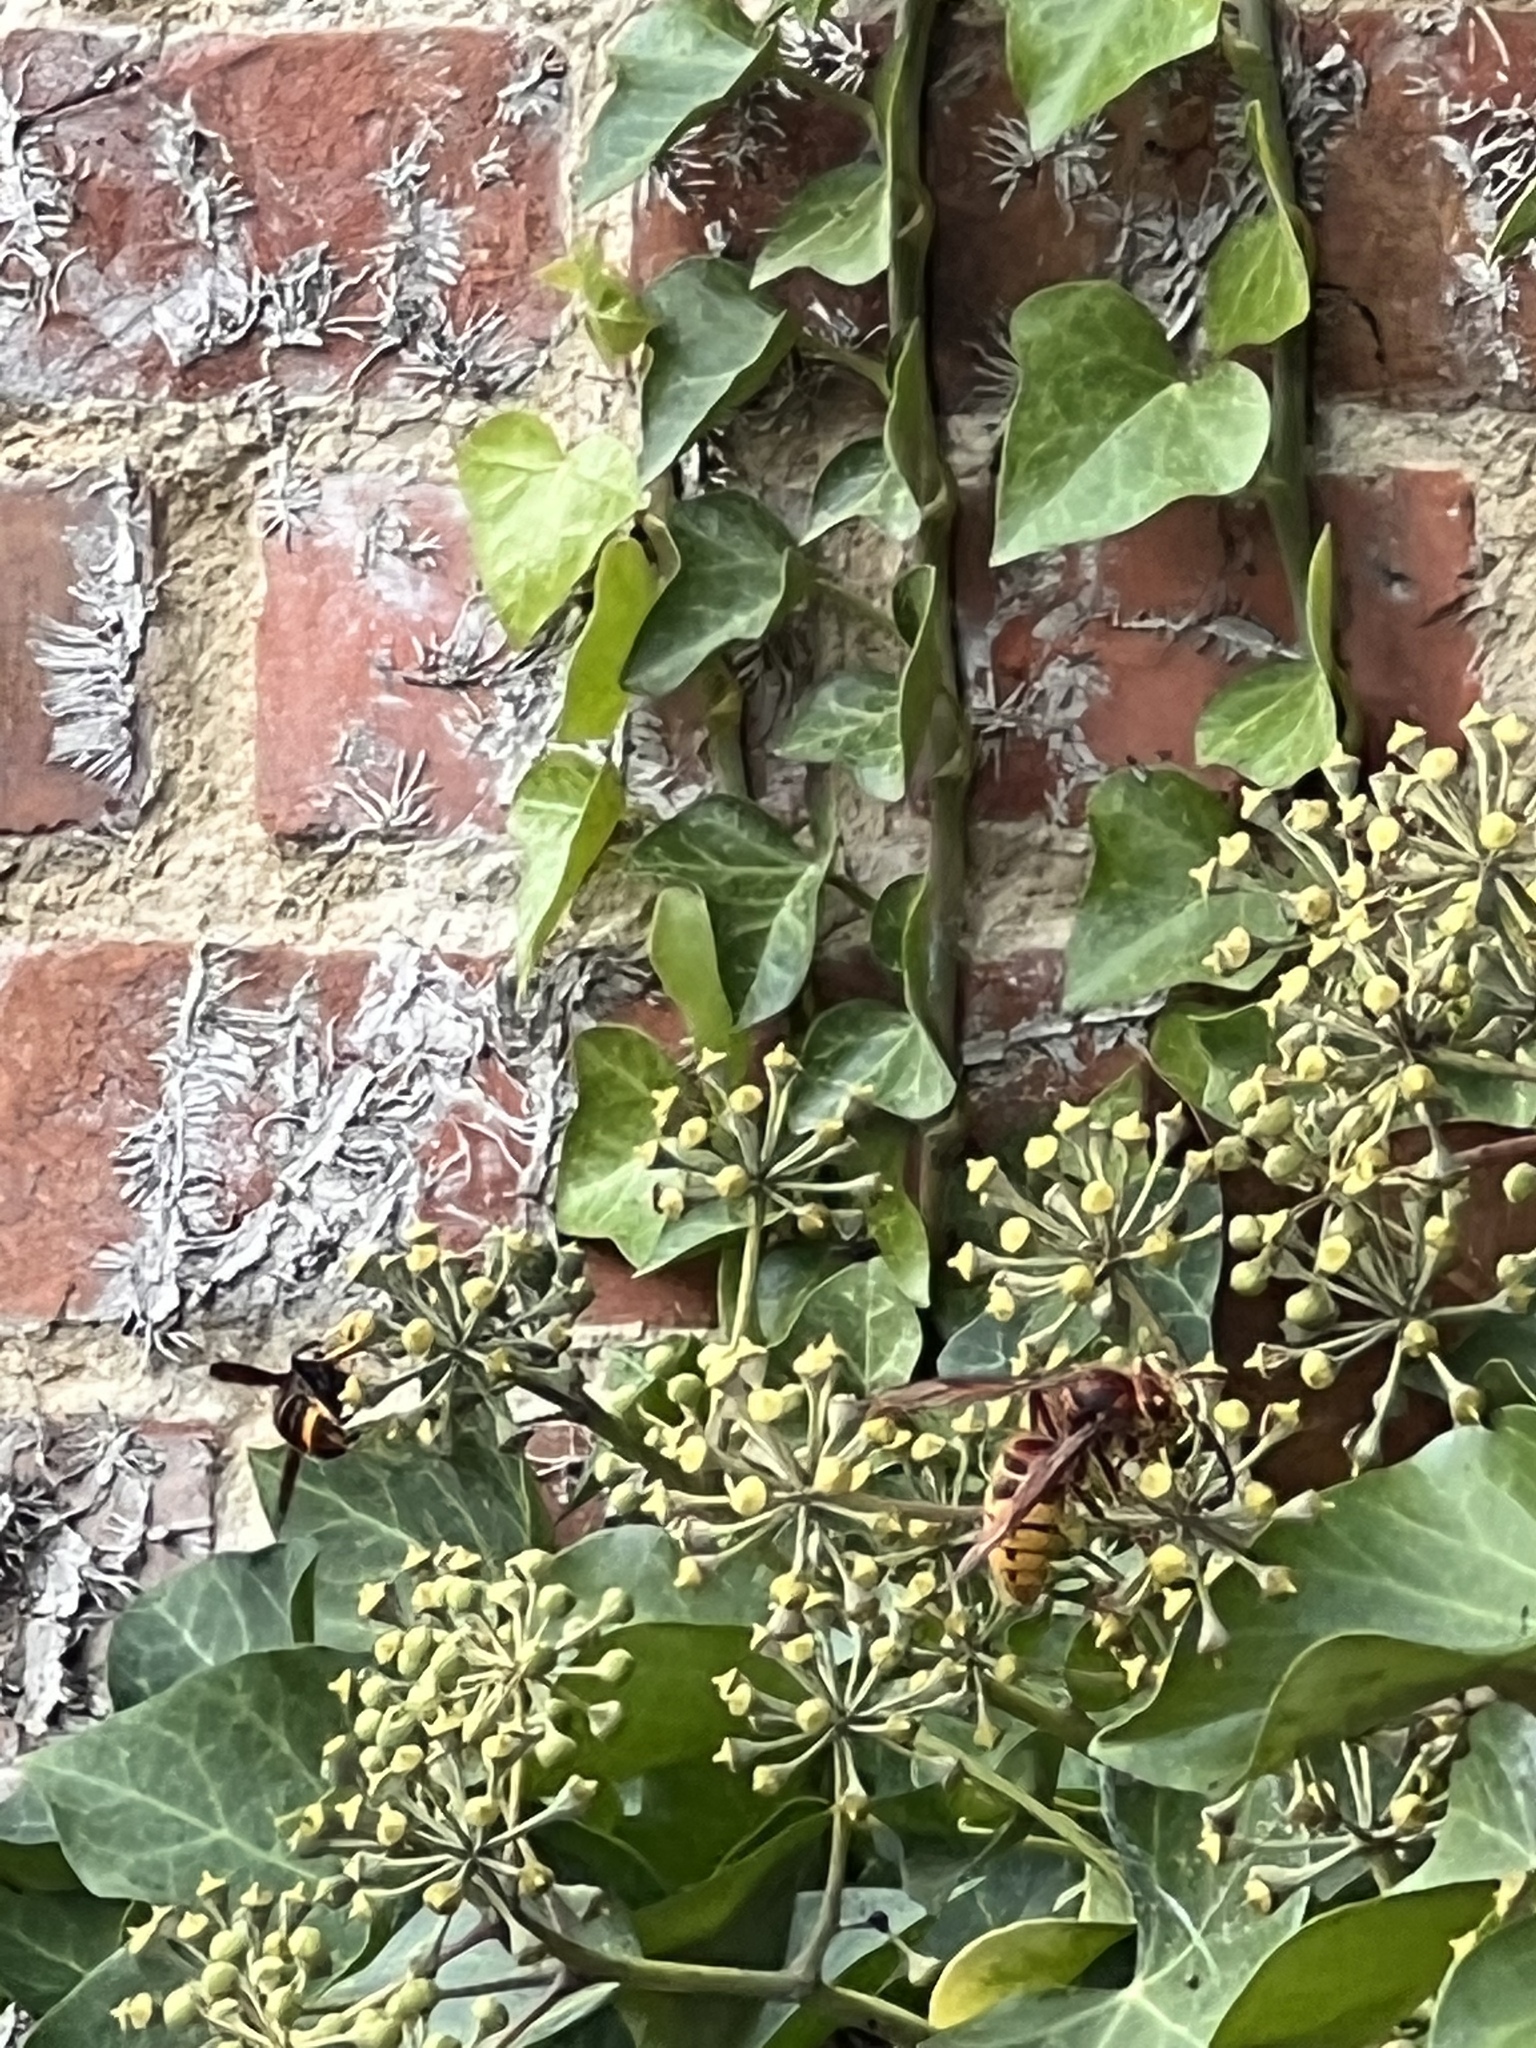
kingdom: Animalia
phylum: Arthropoda
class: Insecta
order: Hymenoptera
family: Vespidae
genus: Vespa
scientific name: Vespa crabro
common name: Hornet
